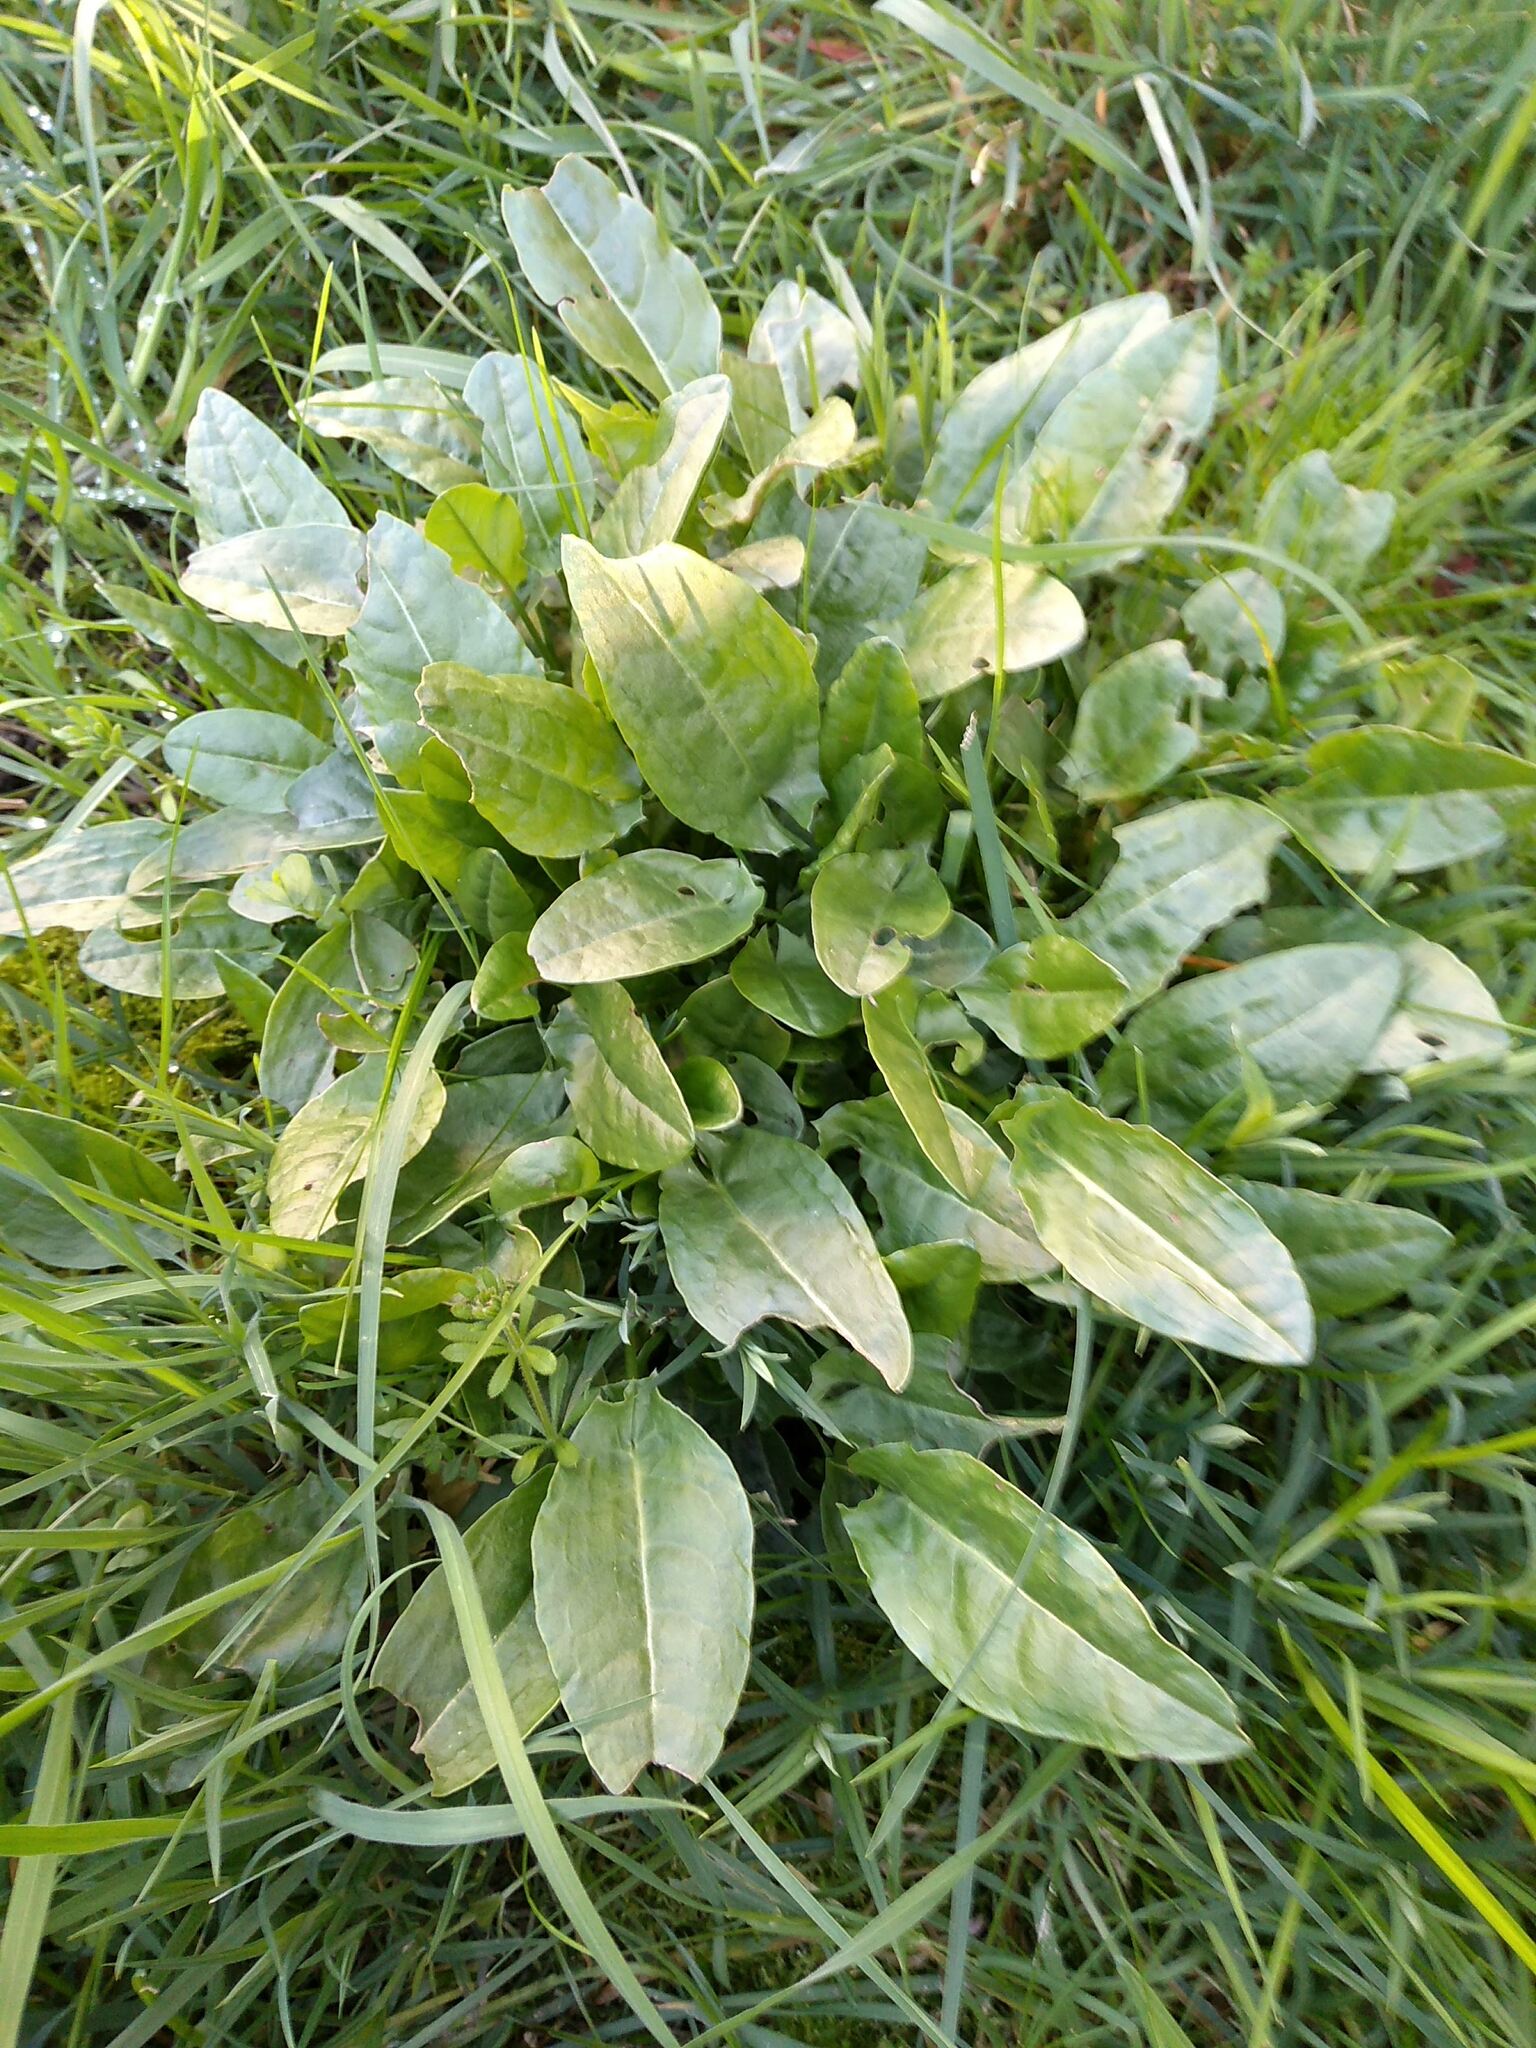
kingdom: Plantae
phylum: Tracheophyta
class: Magnoliopsida
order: Caryophyllales
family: Polygonaceae
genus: Rumex
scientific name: Rumex acetosa
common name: Garden sorrel
